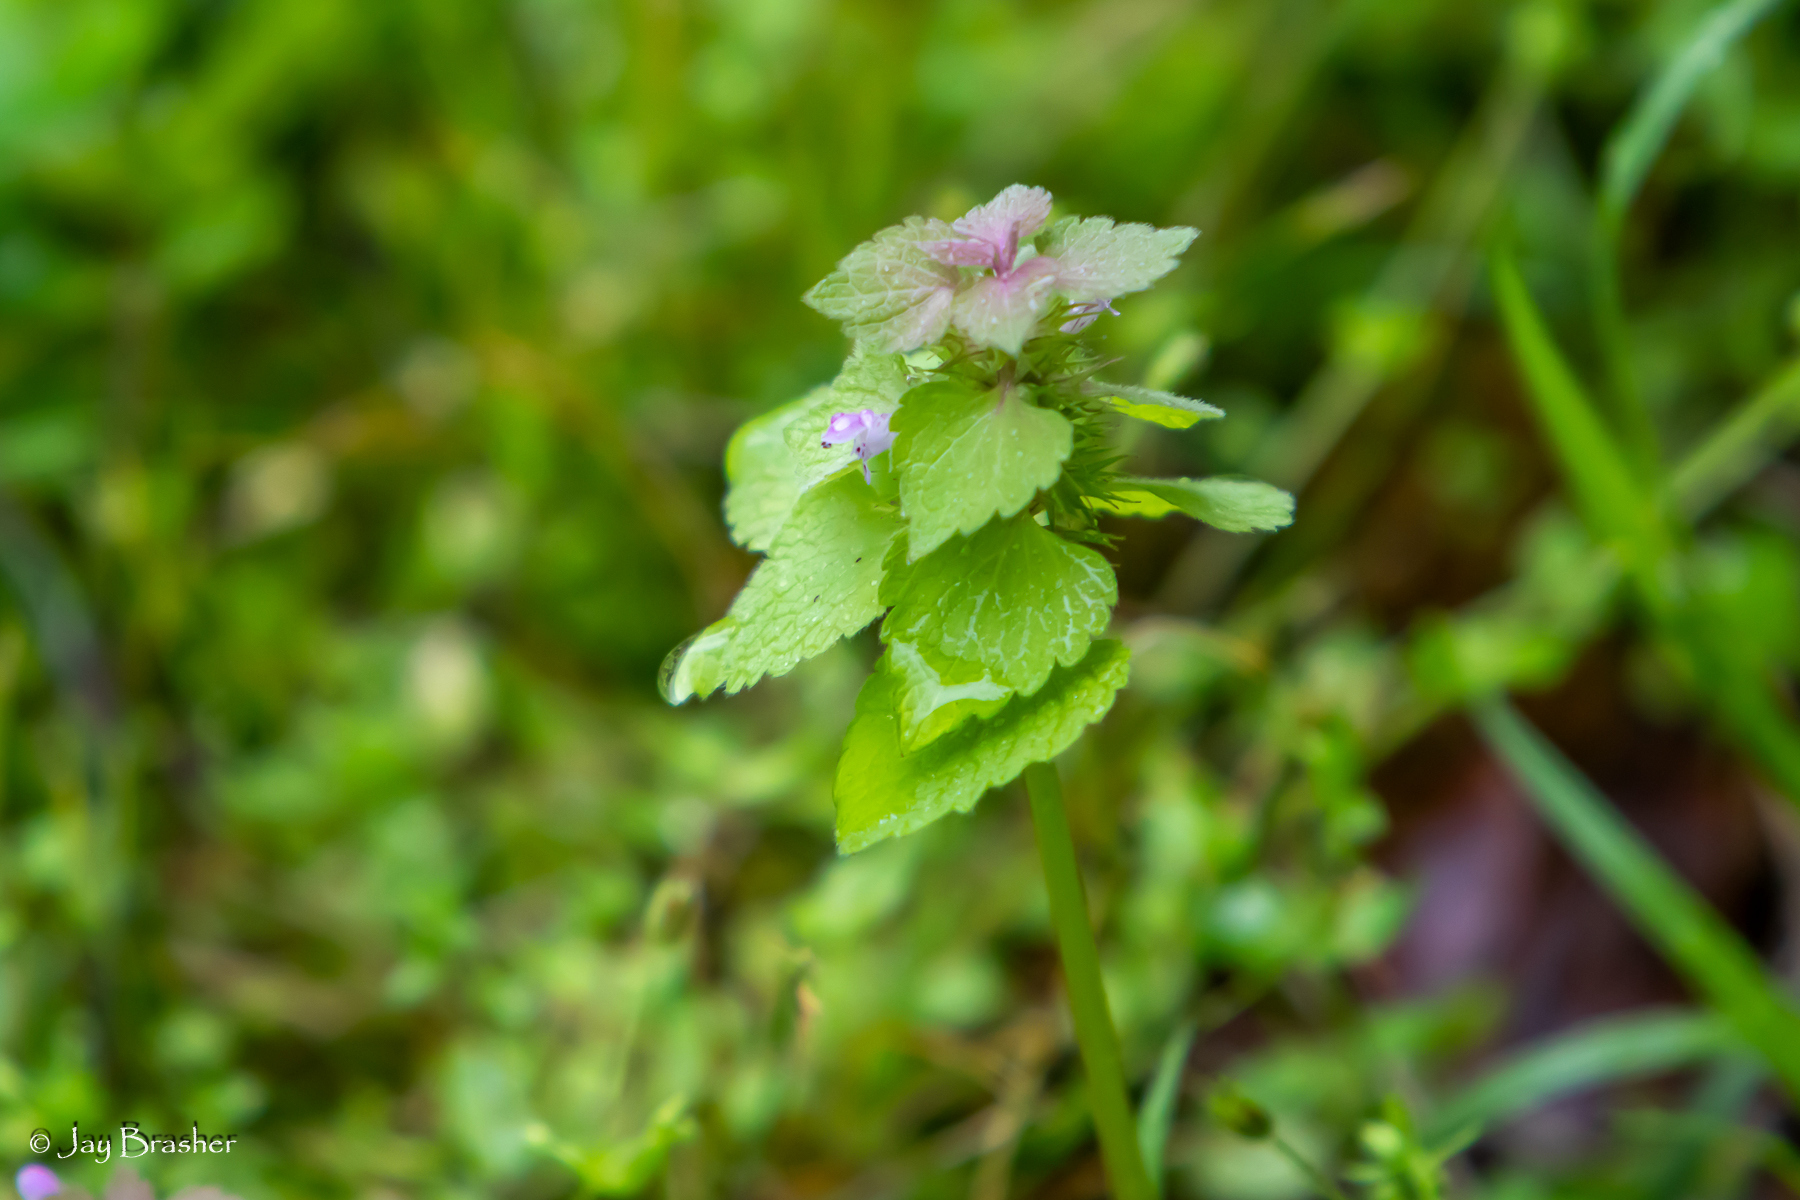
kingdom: Plantae
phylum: Tracheophyta
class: Magnoliopsida
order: Lamiales
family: Lamiaceae
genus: Lamium
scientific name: Lamium purpureum
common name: Red dead-nettle
